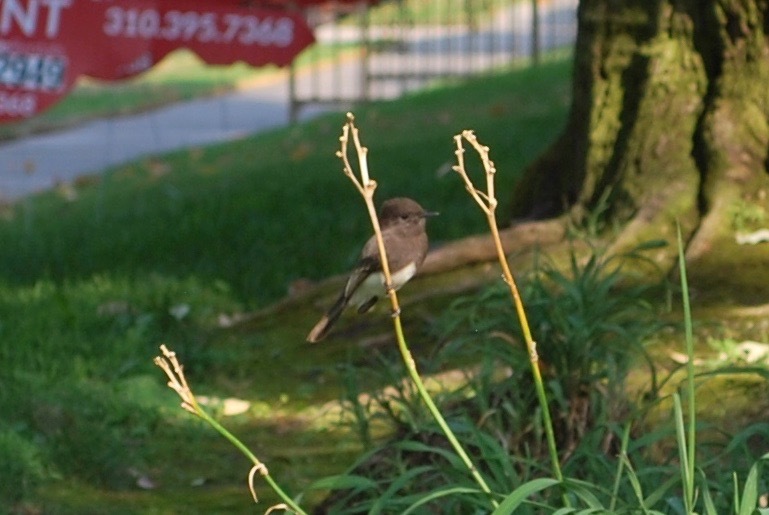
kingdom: Animalia
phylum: Chordata
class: Aves
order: Passeriformes
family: Tyrannidae
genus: Sayornis
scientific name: Sayornis nigricans
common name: Black phoebe
